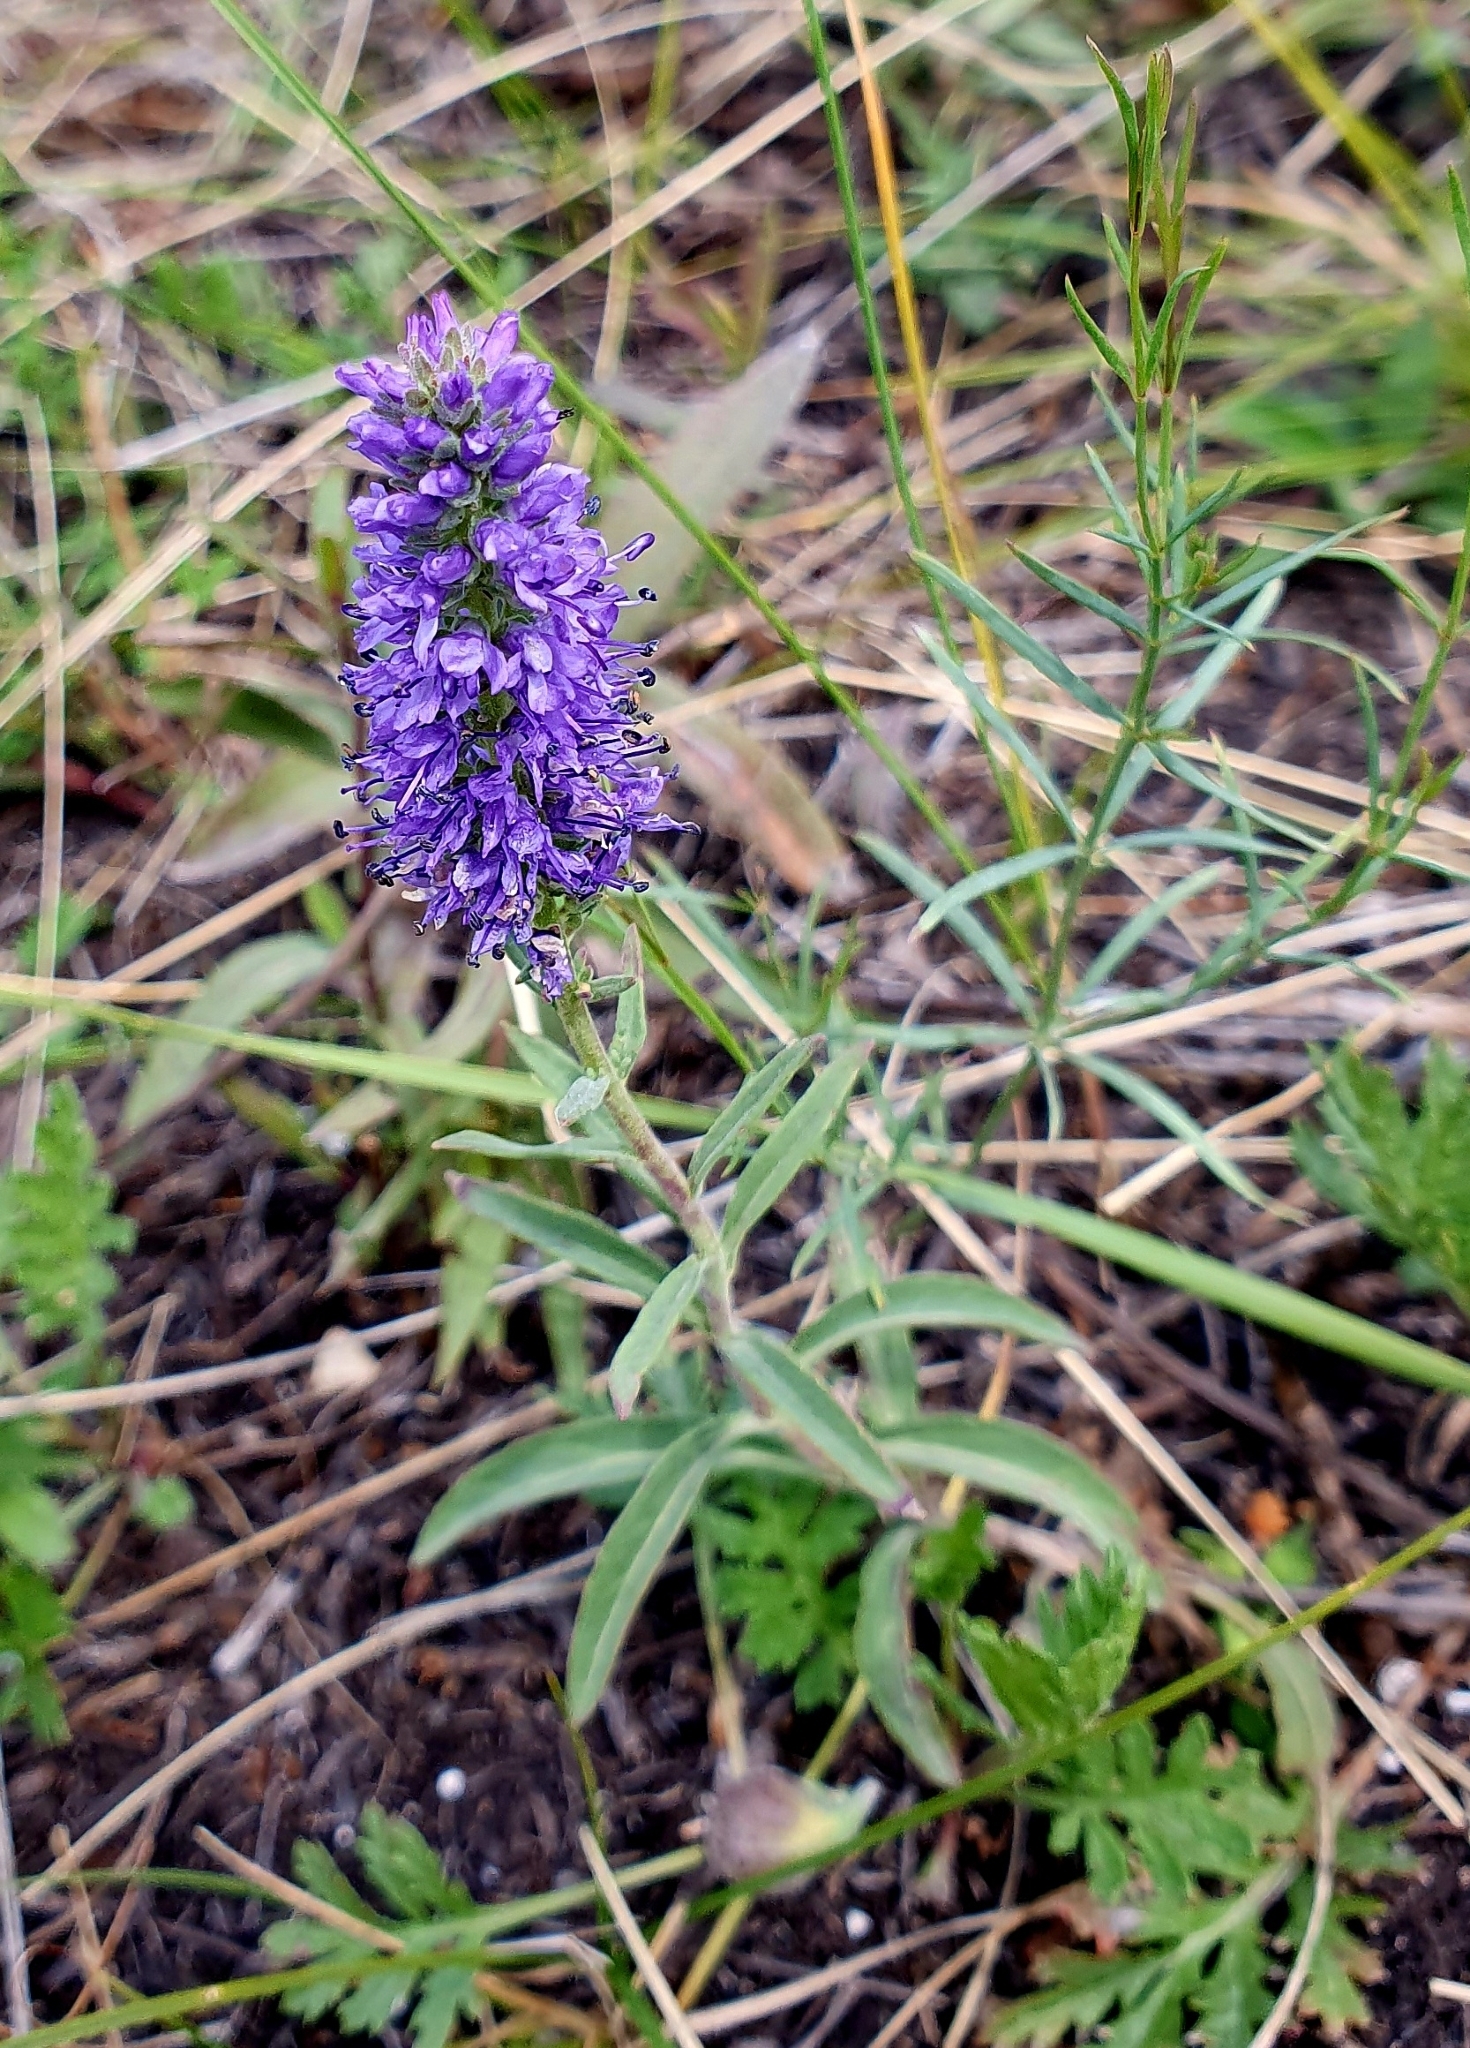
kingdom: Plantae
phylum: Tracheophyta
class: Magnoliopsida
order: Lamiales
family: Plantaginaceae
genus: Veronica
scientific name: Veronica spicata
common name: Spiked speedwell
